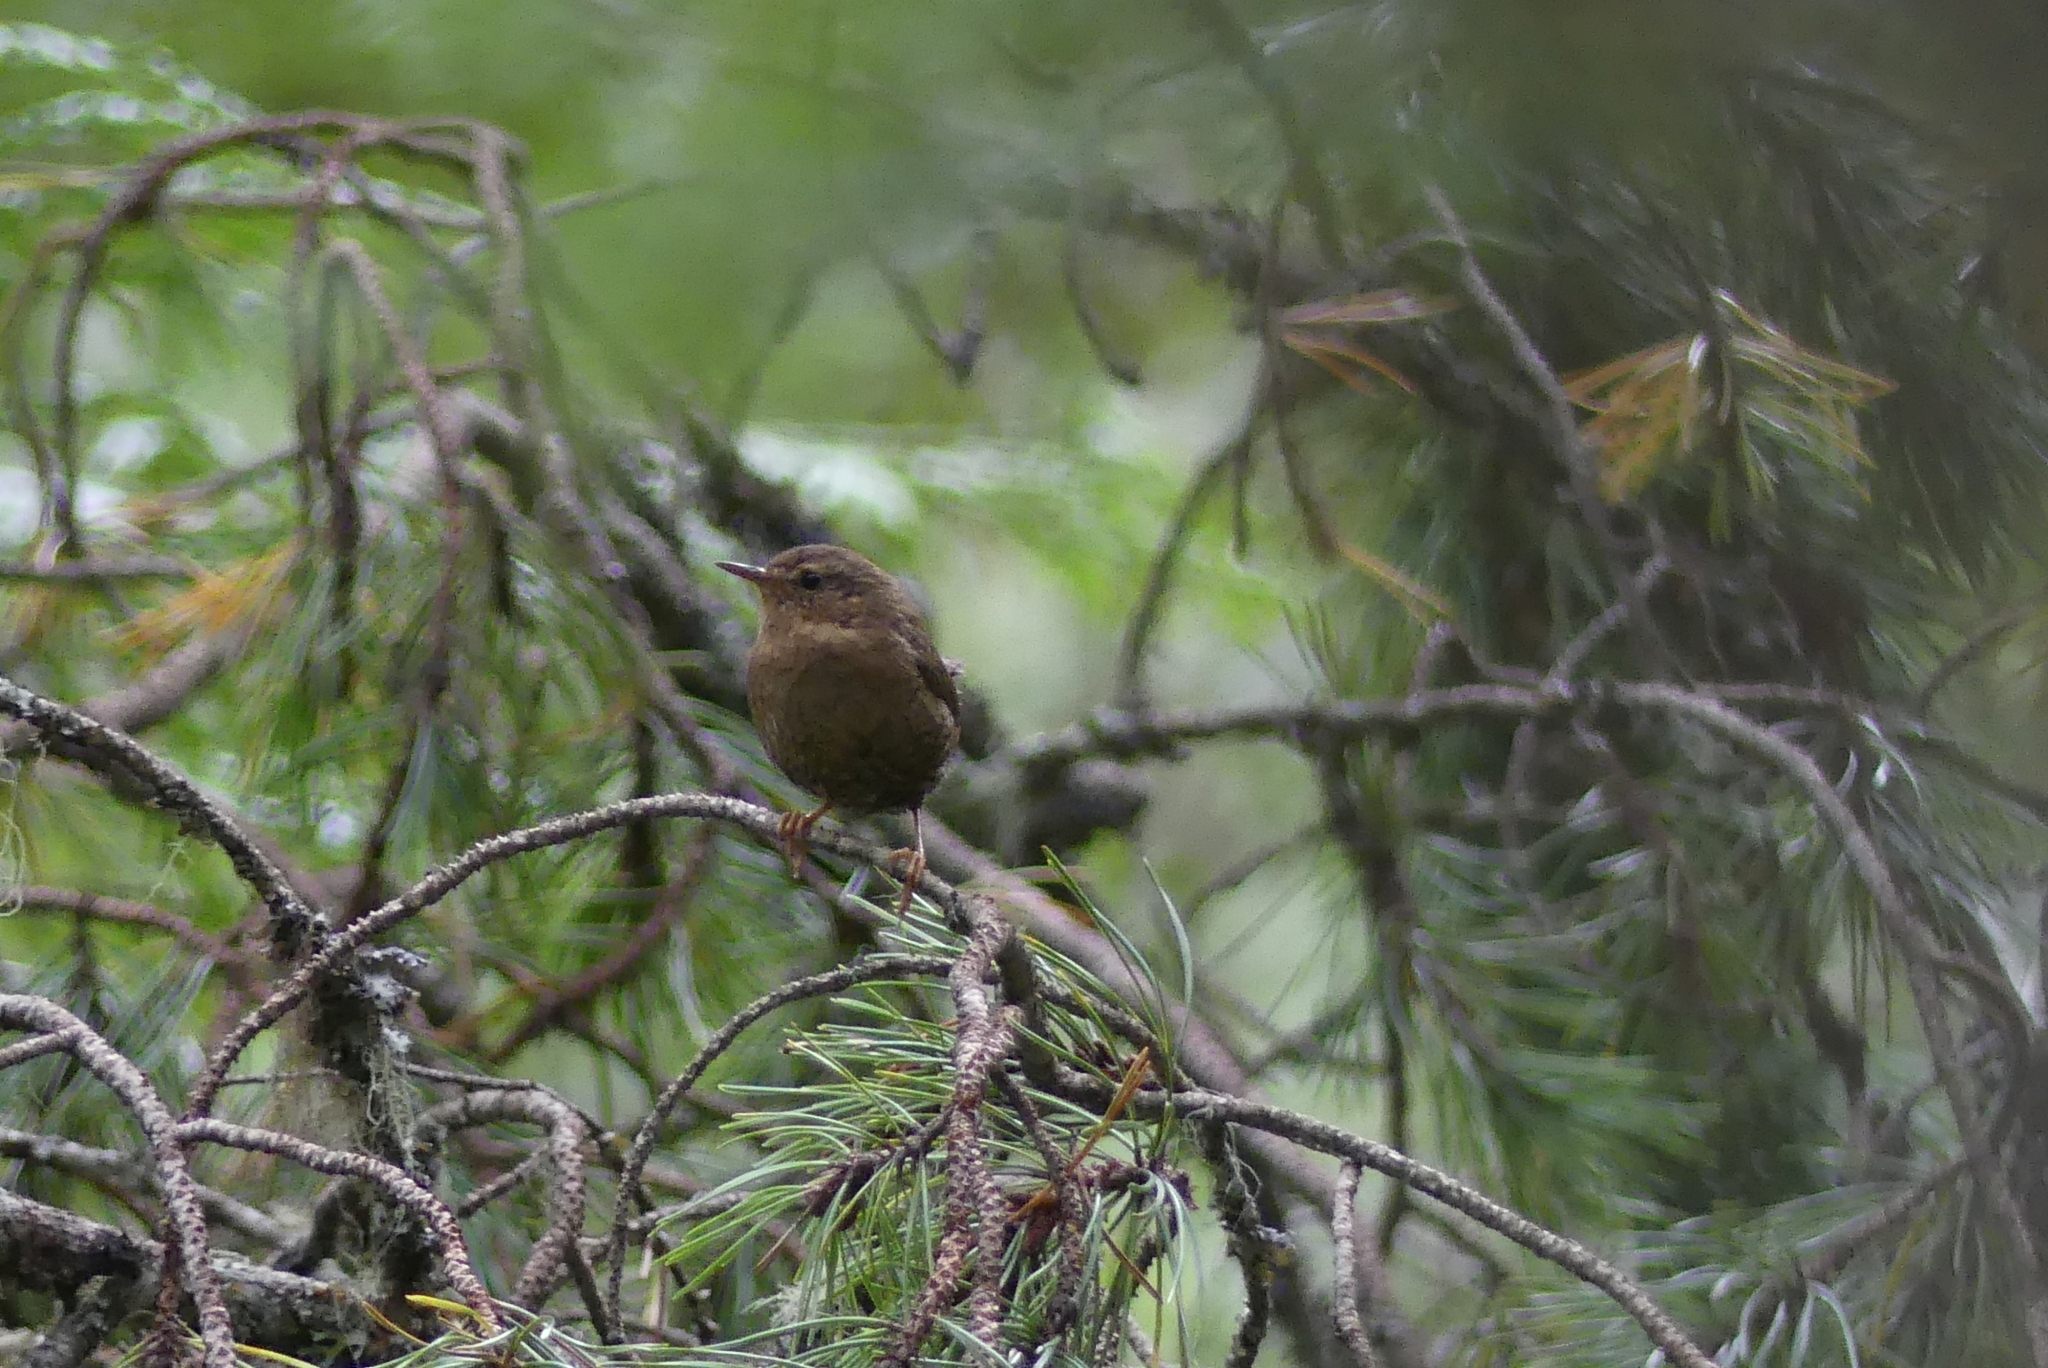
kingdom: Animalia
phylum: Chordata
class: Aves
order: Passeriformes
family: Troglodytidae
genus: Troglodytes
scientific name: Troglodytes pacificus
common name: Pacific wren
